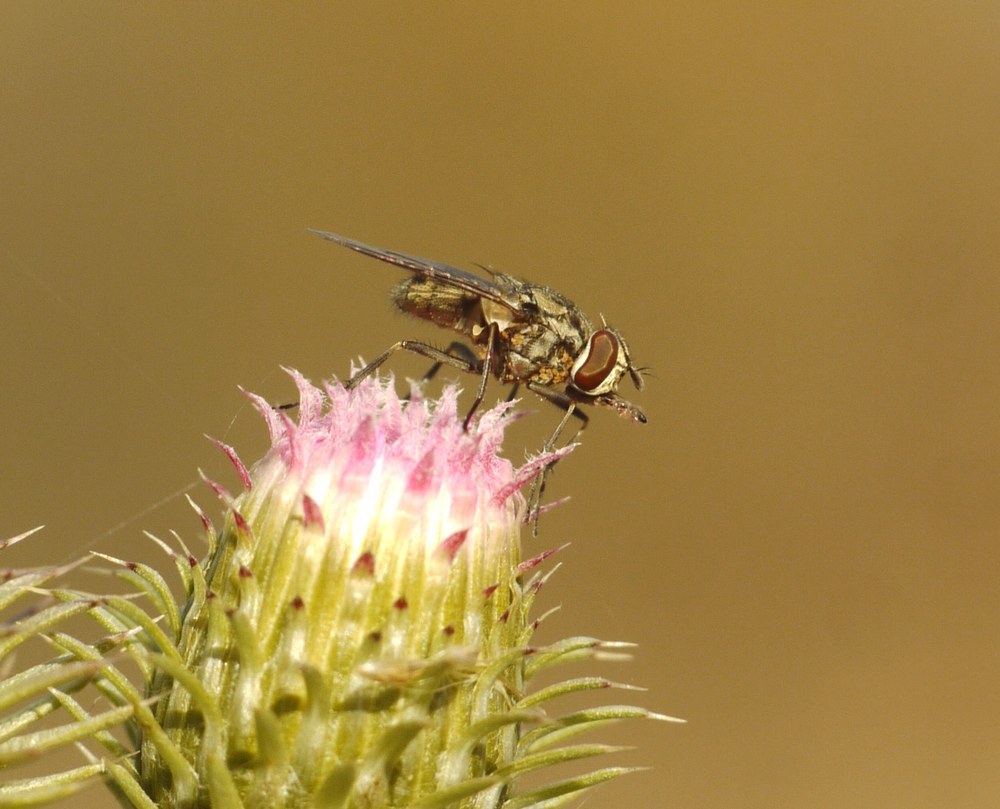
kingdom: Animalia
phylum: Arthropoda
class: Insecta
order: Diptera
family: Muscidae
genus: Stomoxys
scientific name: Stomoxys calcitrans
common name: Stable fly
